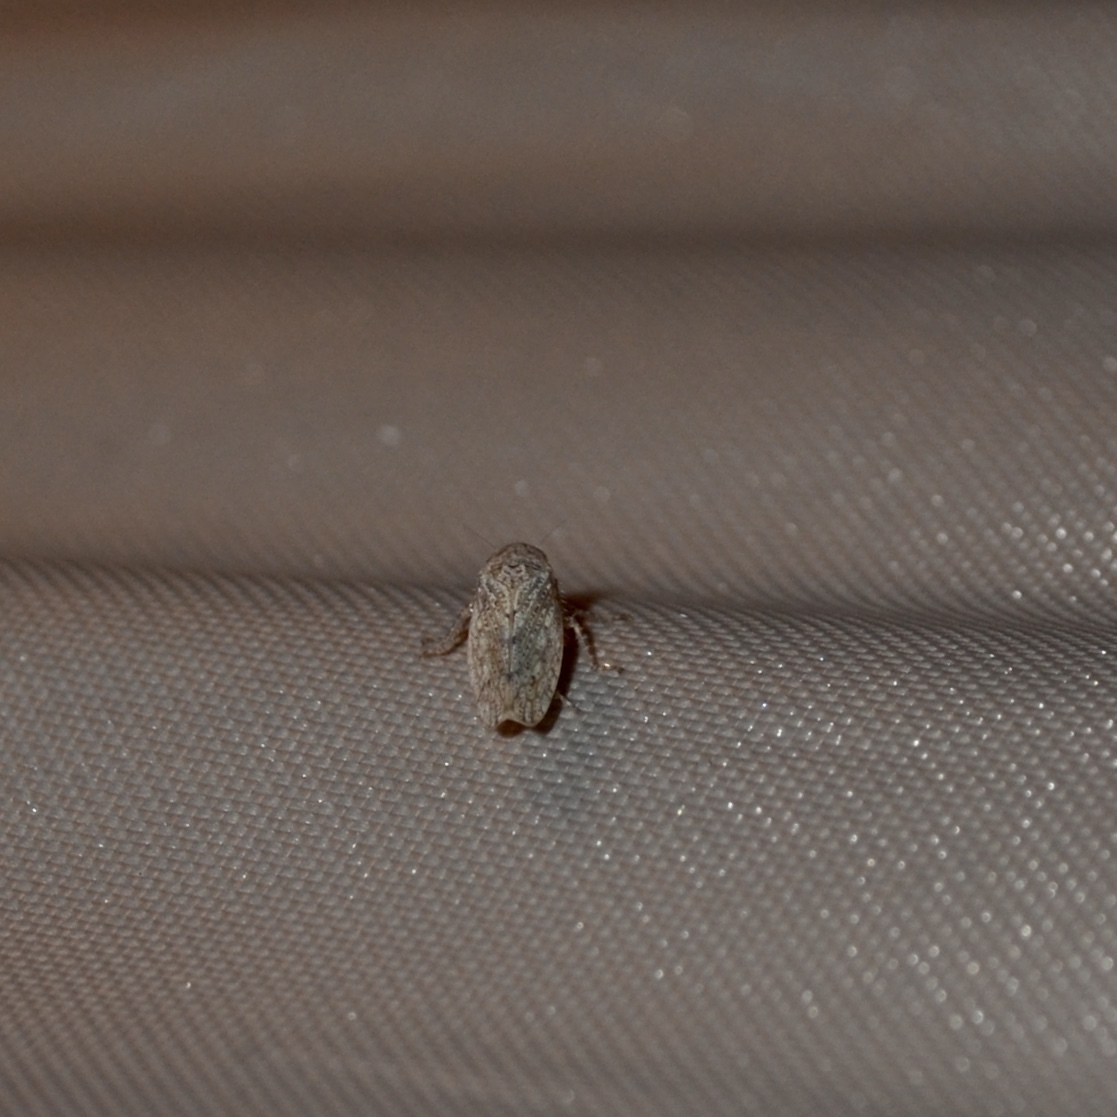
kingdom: Animalia
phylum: Arthropoda
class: Insecta
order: Hemiptera
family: Cicadellidae
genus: Curtara
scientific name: Curtara insularis
